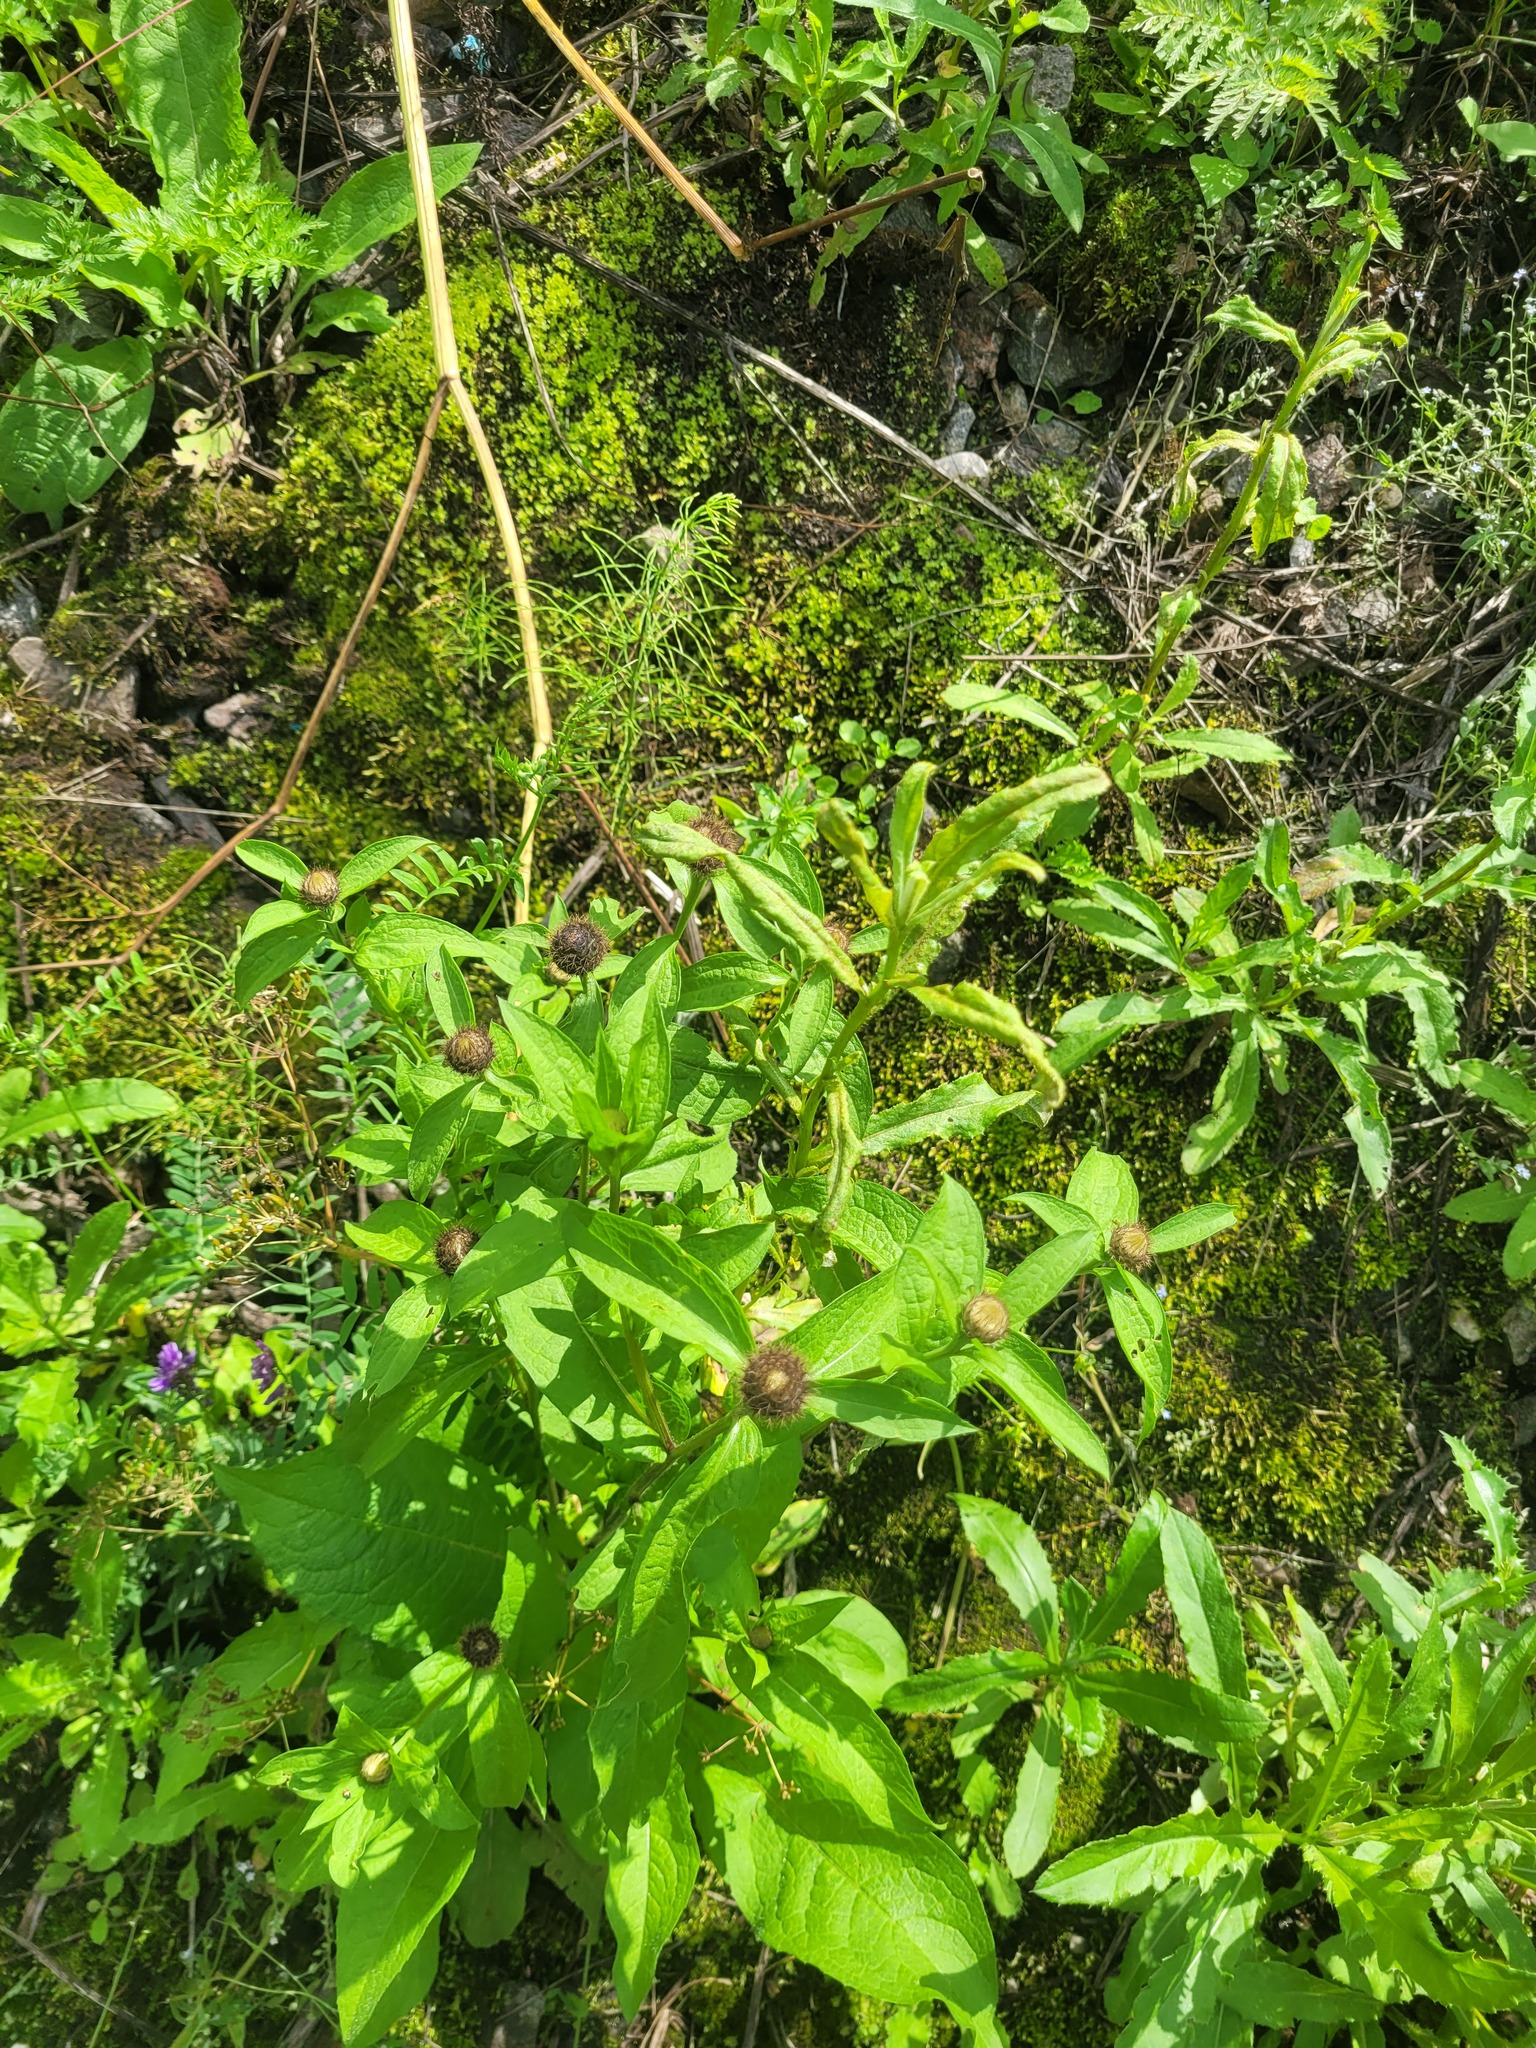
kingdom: Plantae
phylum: Tracheophyta
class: Magnoliopsida
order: Asterales
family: Asteraceae
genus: Centaurea
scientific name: Centaurea pseudophrygia
